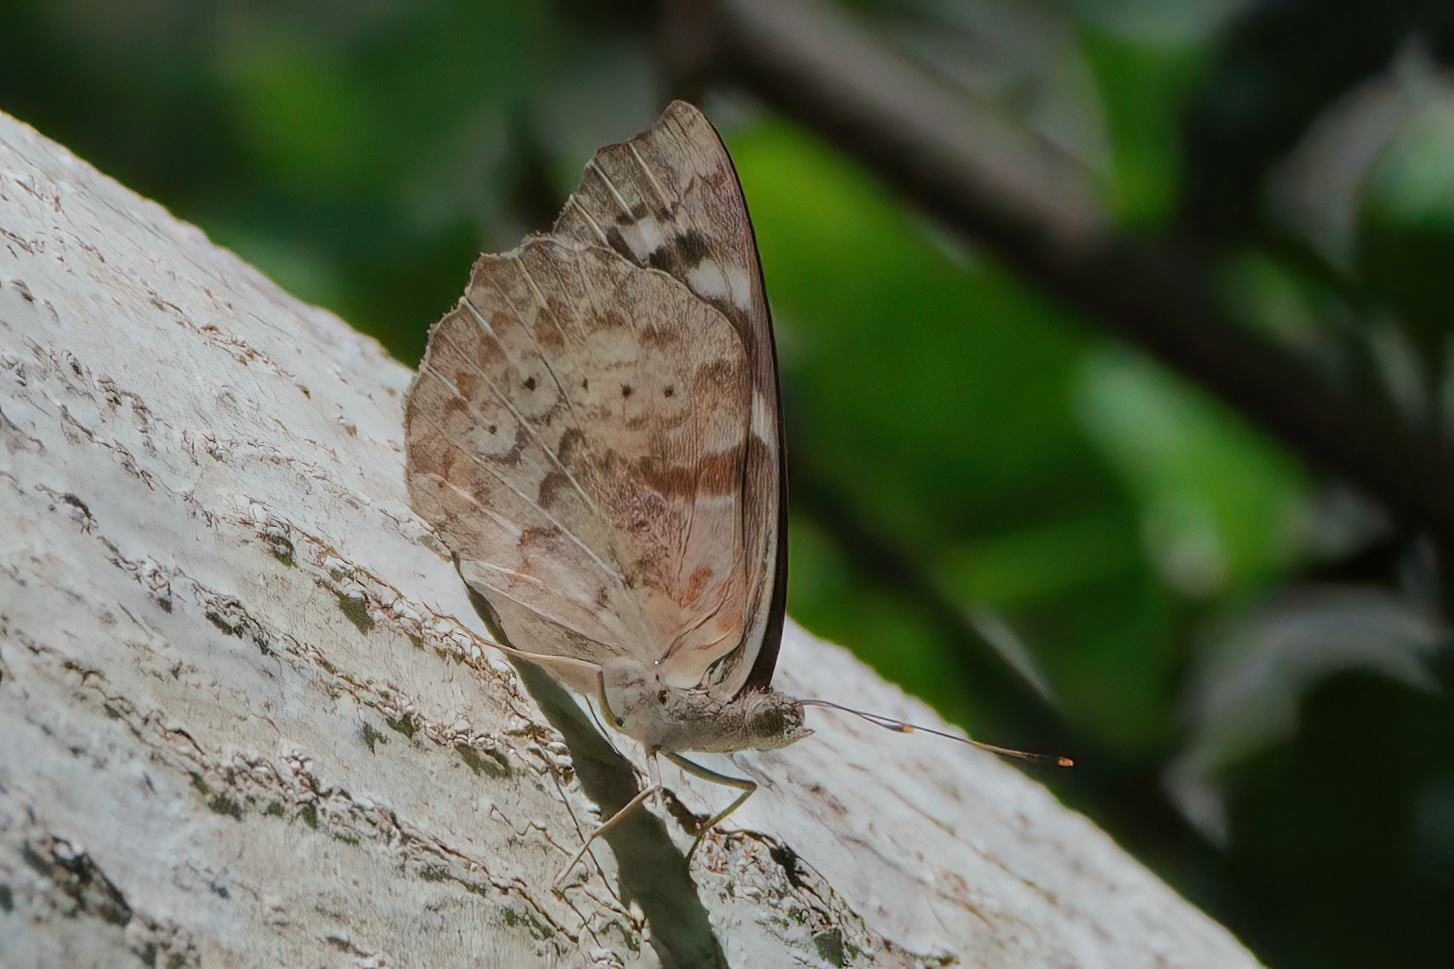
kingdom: Animalia
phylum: Arthropoda
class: Insecta
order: Lepidoptera
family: Nymphalidae
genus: Eunica
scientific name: Eunica tatila
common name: Florida purplewing
